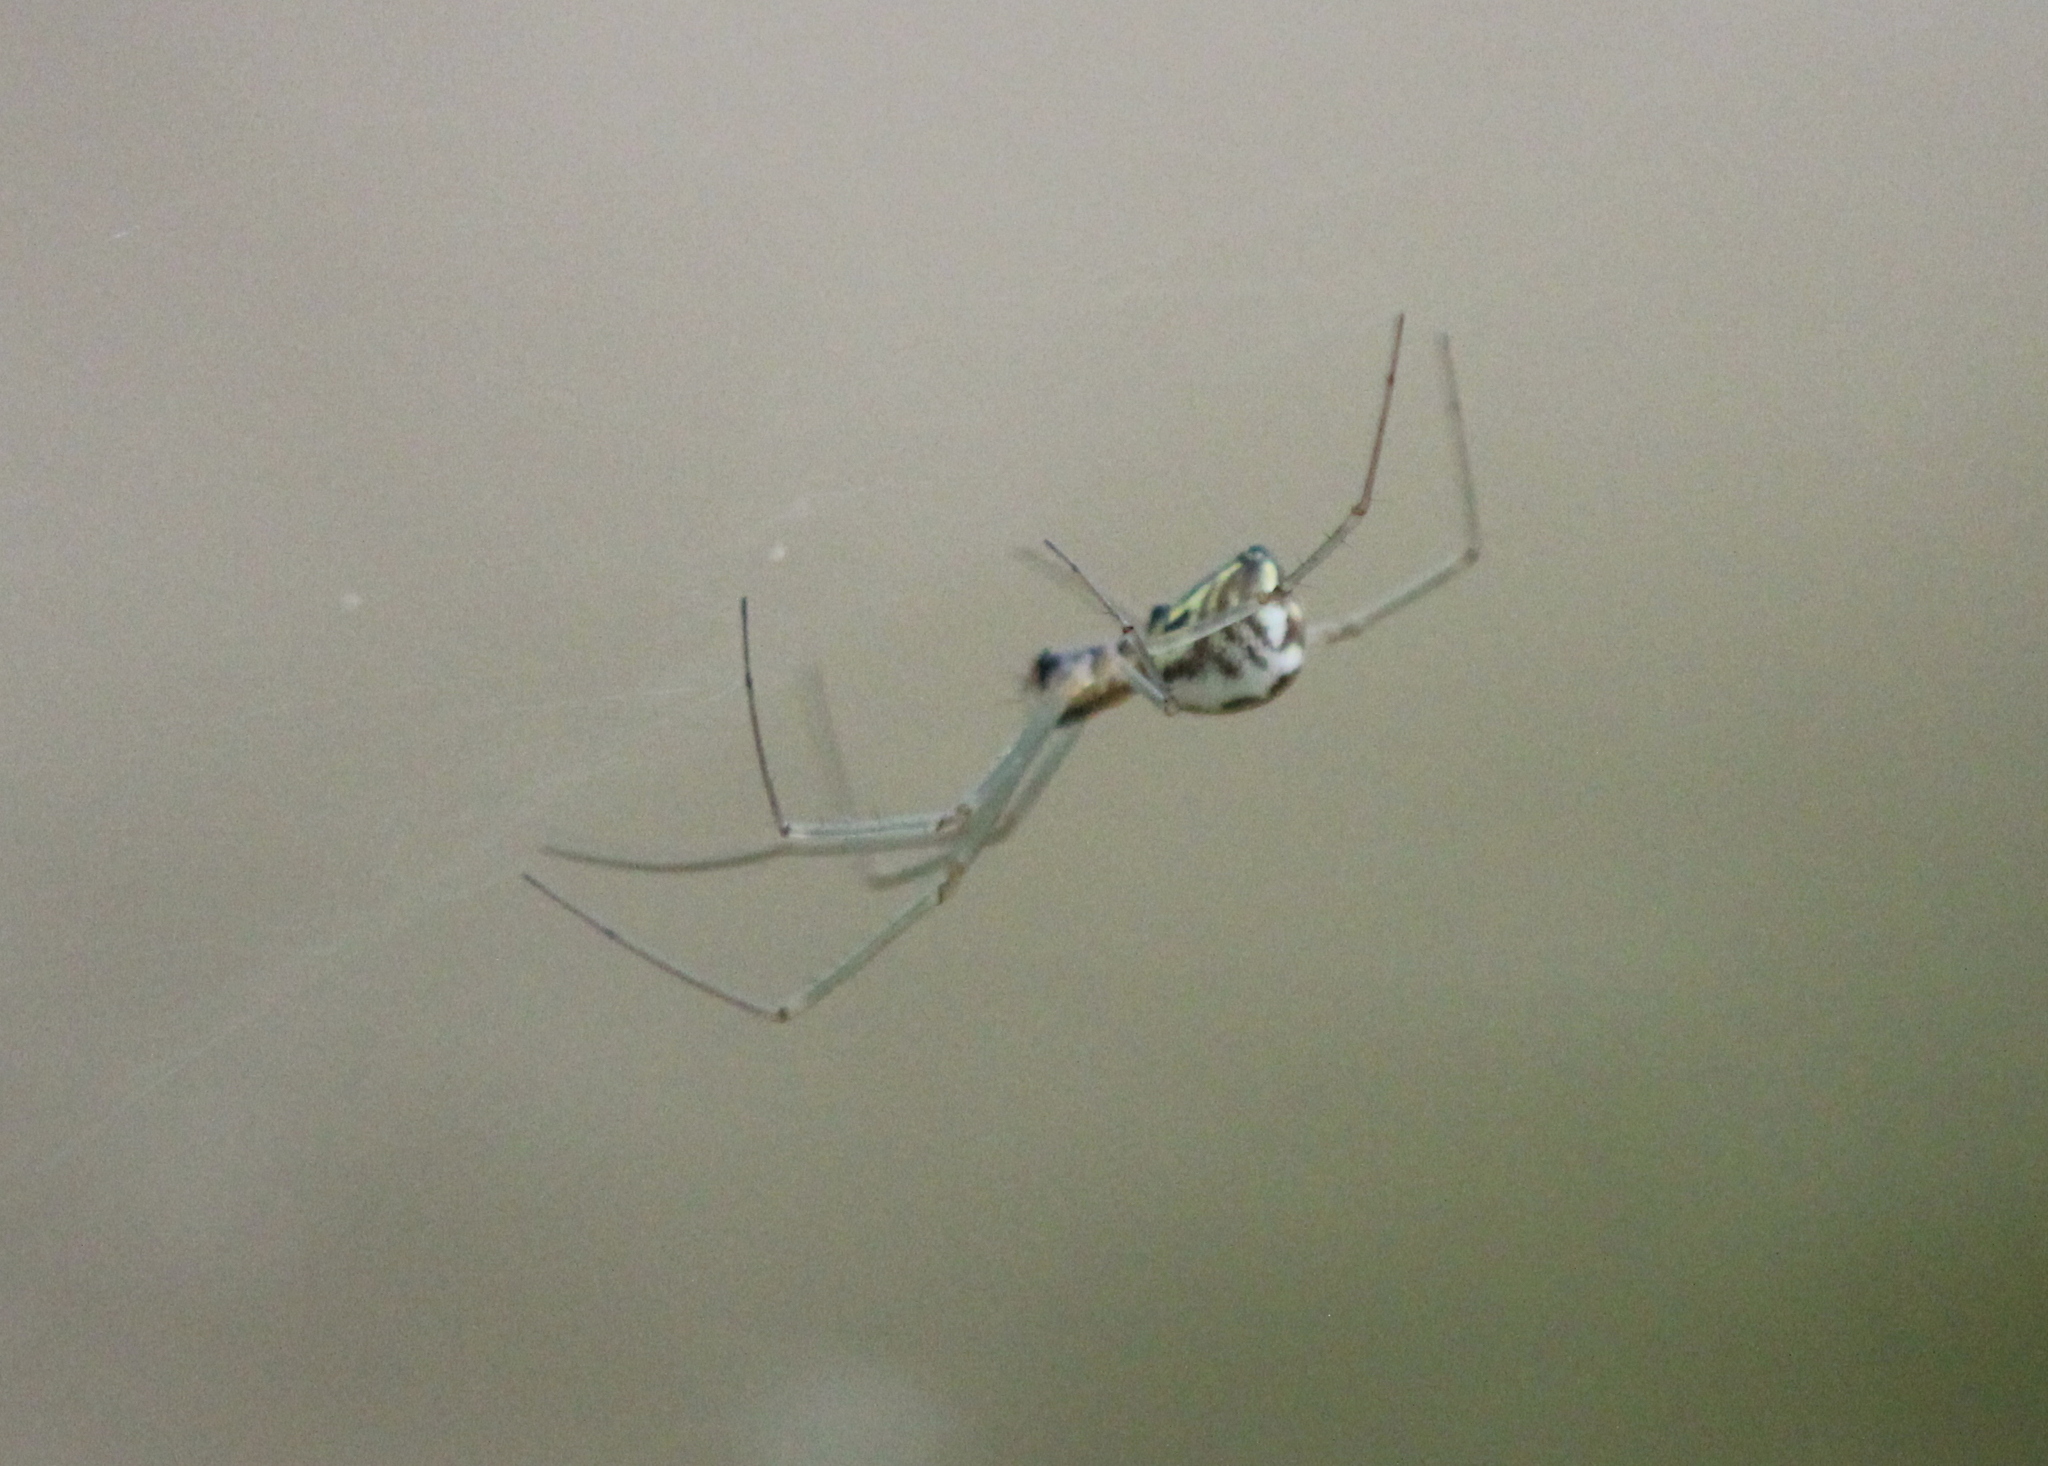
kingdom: Animalia
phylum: Arthropoda
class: Arachnida
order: Araneae
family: Linyphiidae
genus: Neriene
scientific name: Neriene radiata
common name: Filmy dome spider
